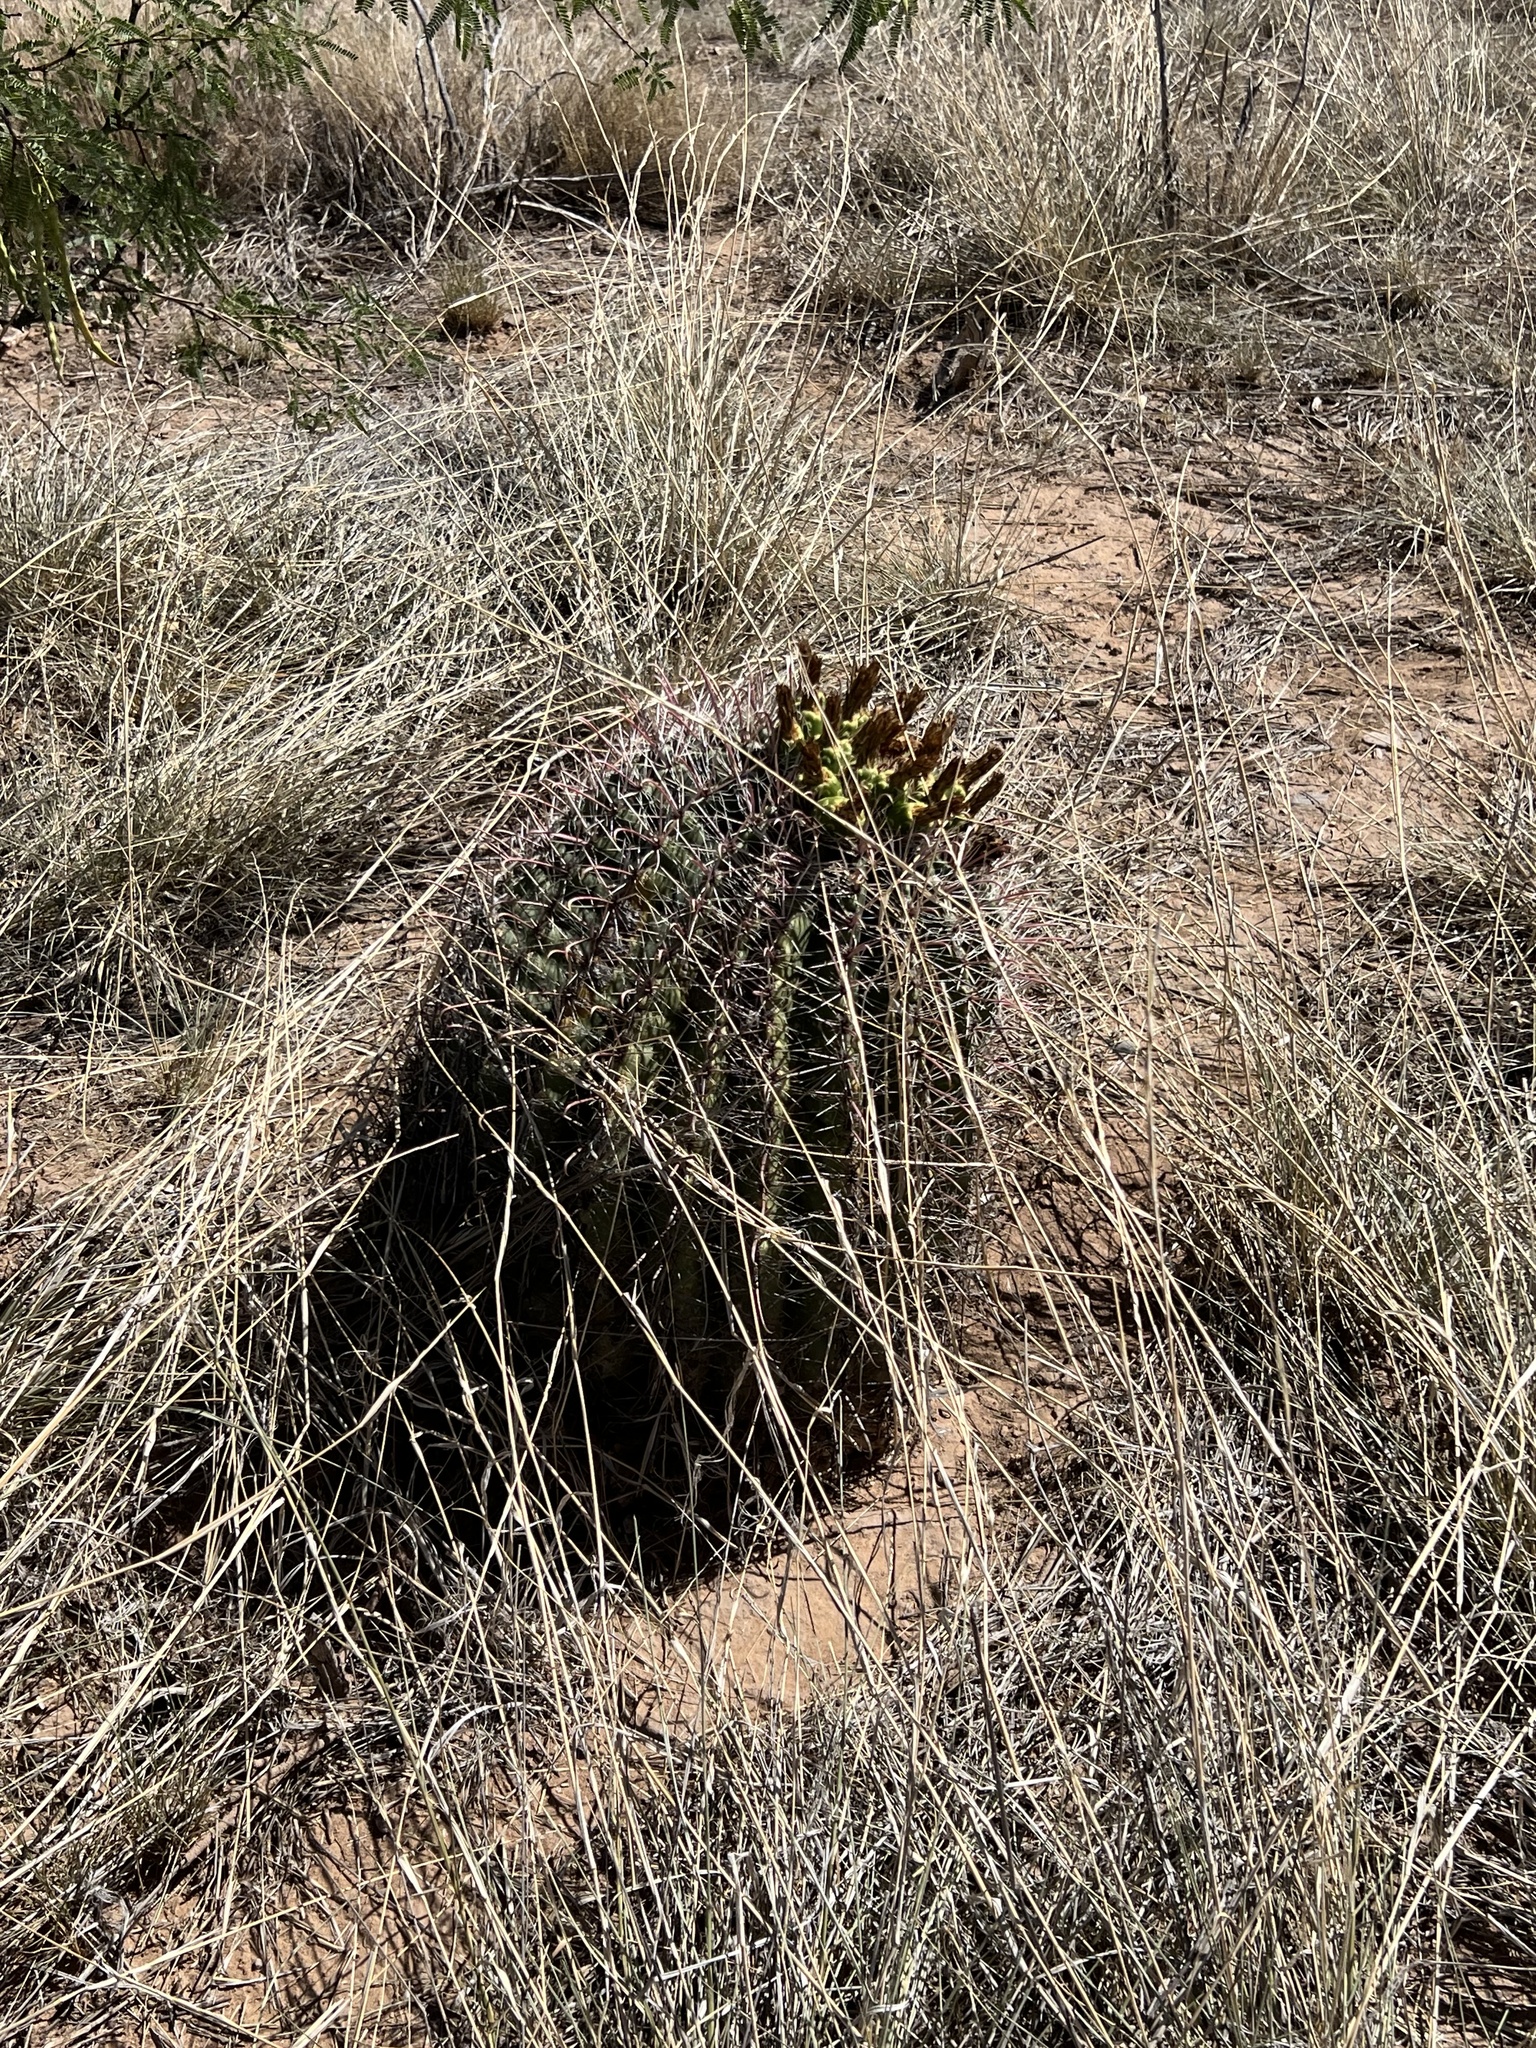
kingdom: Plantae
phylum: Tracheophyta
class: Magnoliopsida
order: Caryophyllales
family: Cactaceae
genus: Ferocactus
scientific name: Ferocactus wislizeni
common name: Candy barrel cactus
